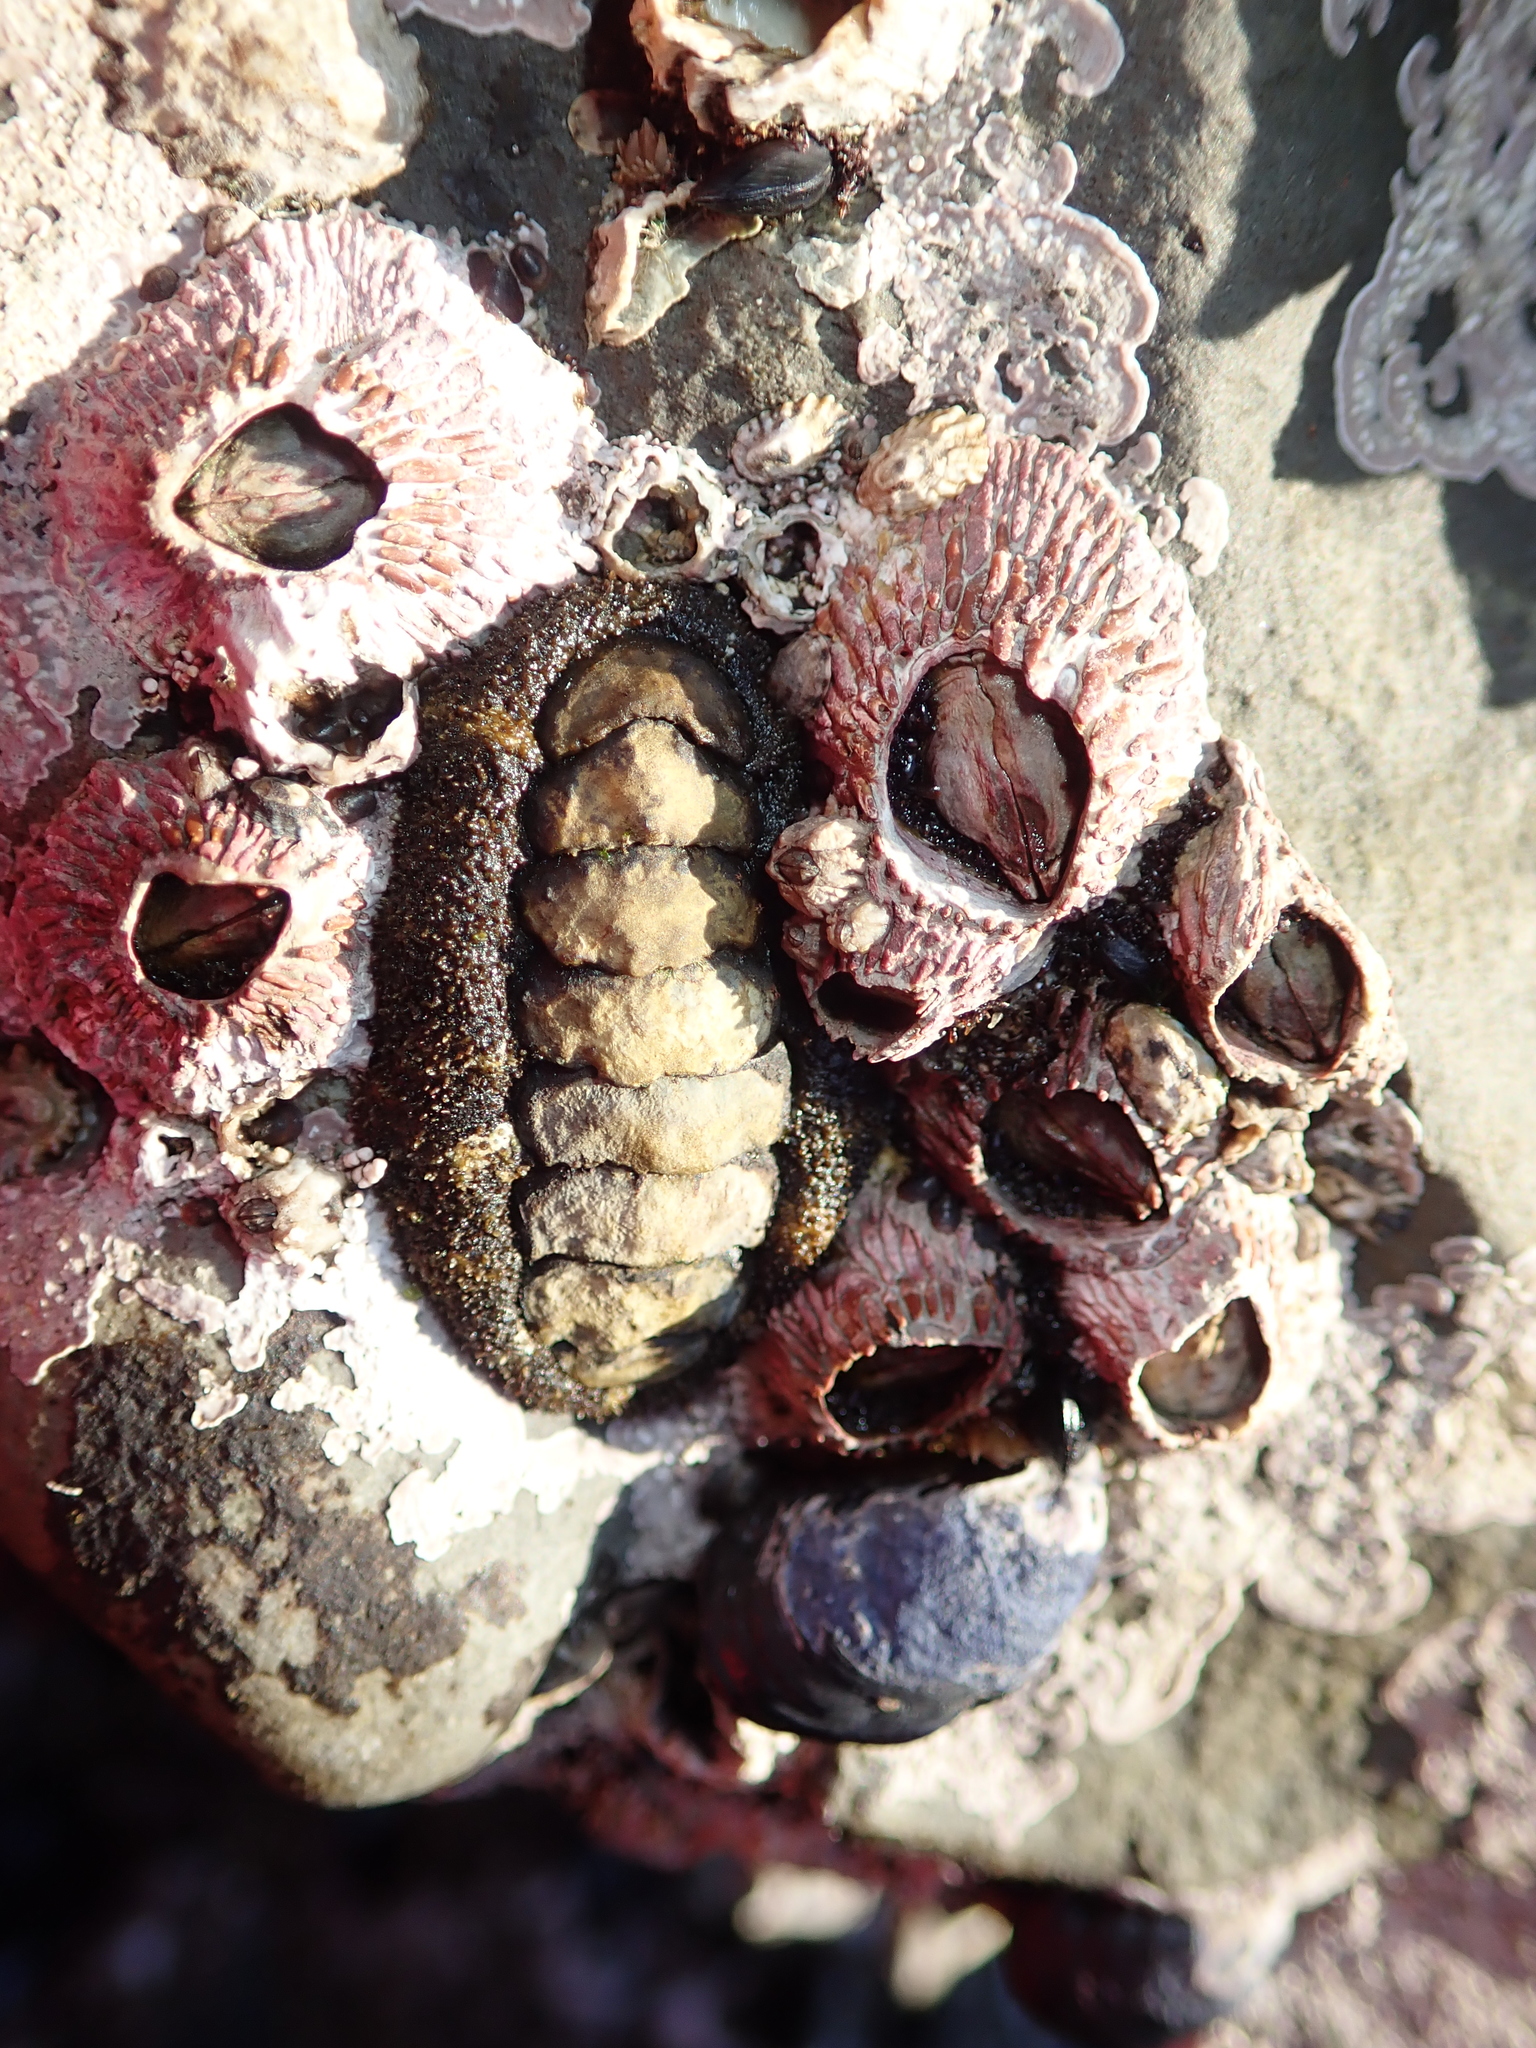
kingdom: Animalia
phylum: Mollusca
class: Polyplacophora
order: Chitonida
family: Tonicellidae
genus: Nuttallina
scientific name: Nuttallina californica
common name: California nuttall chiton
